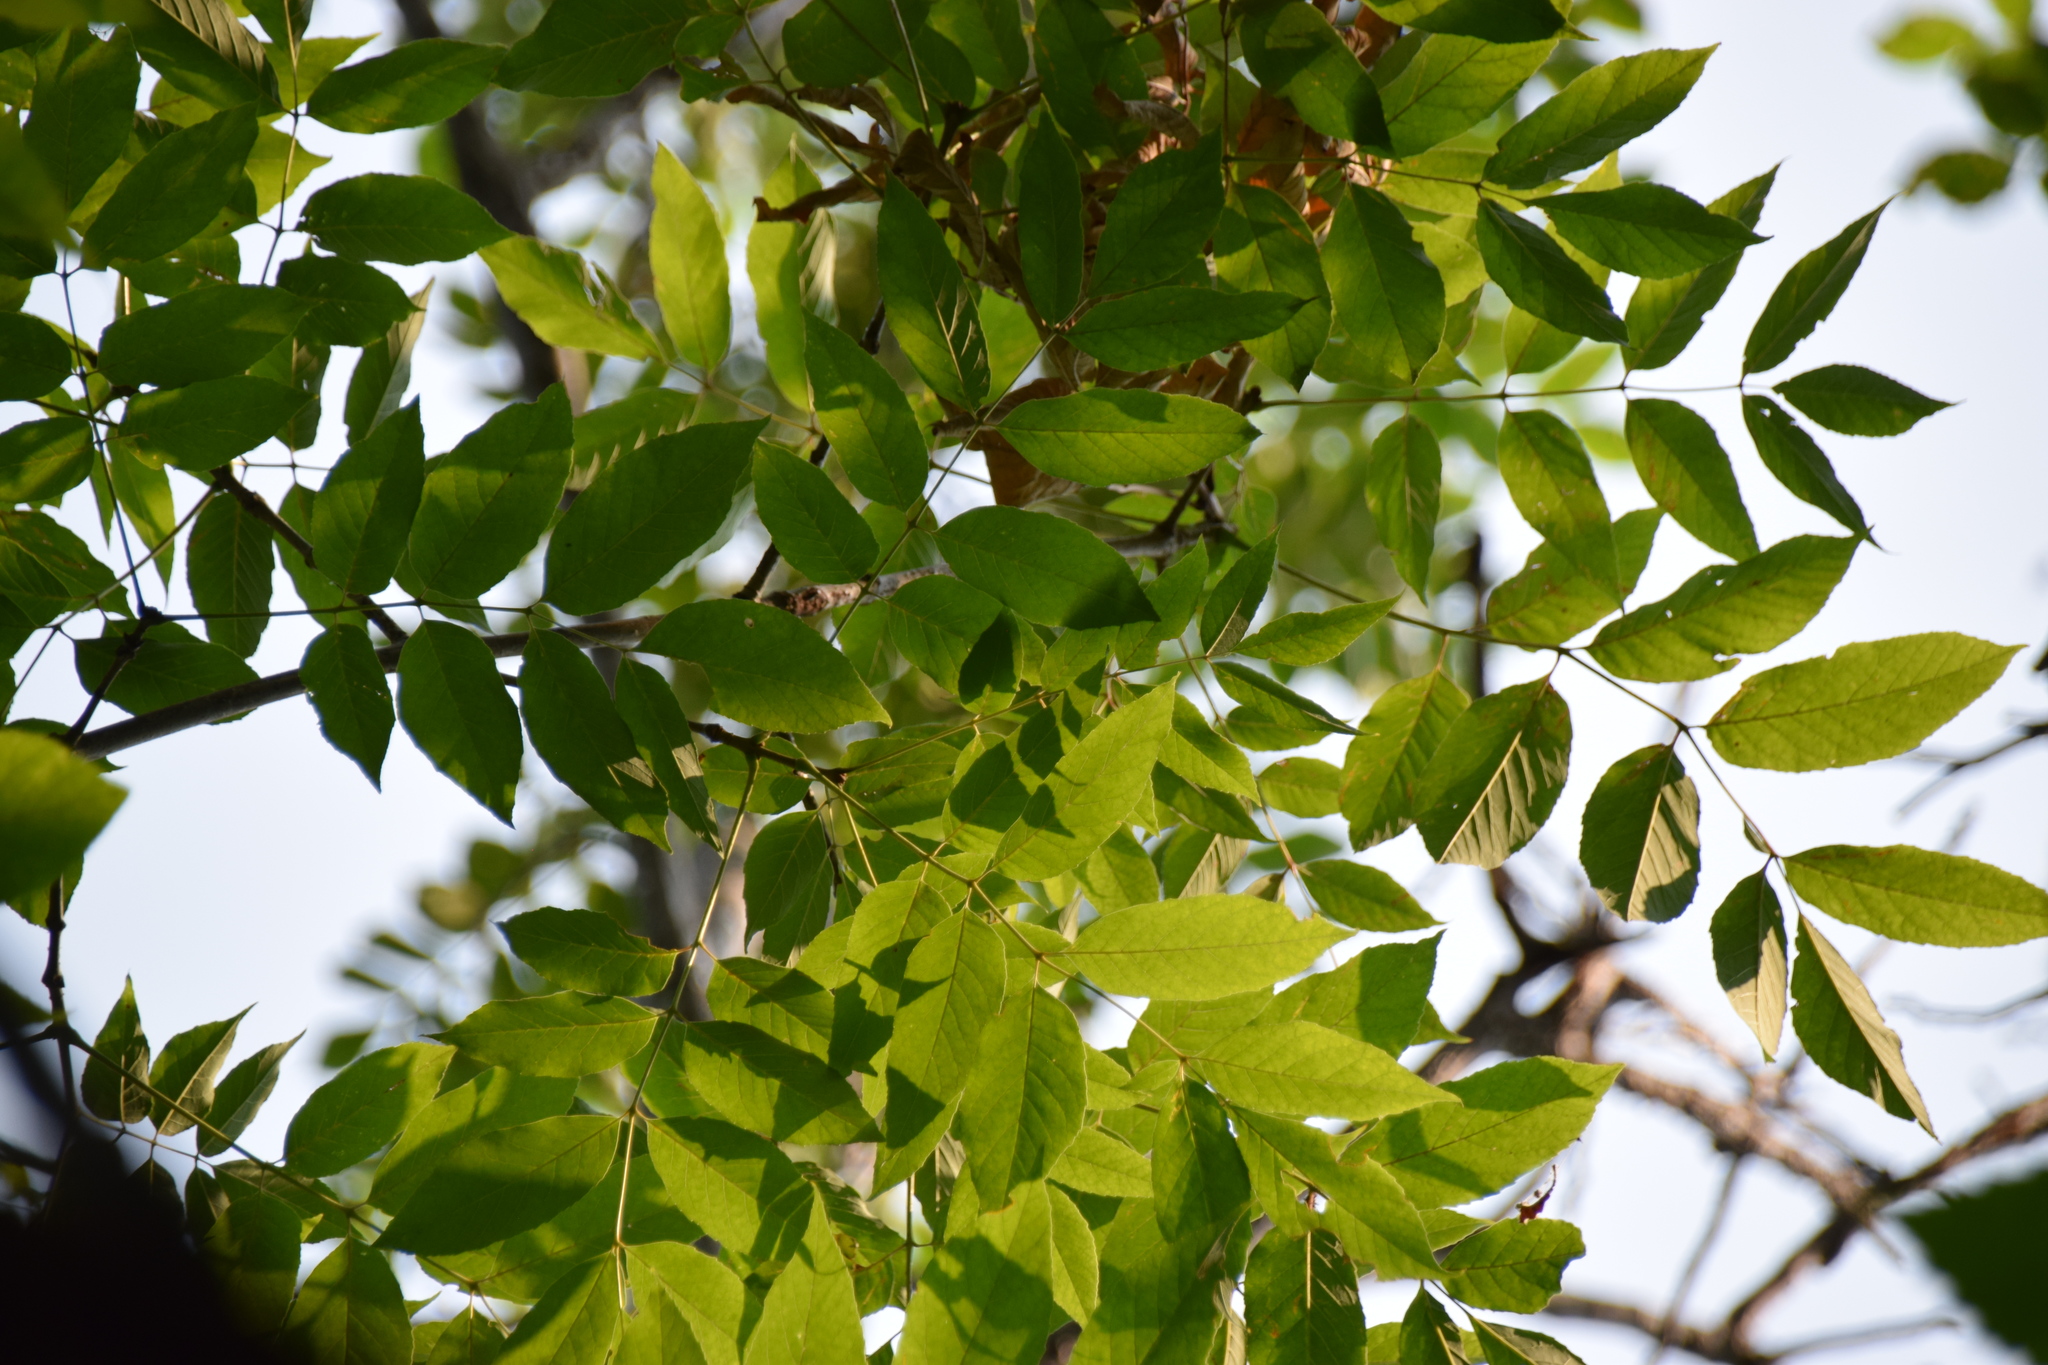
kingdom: Plantae
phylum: Tracheophyta
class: Magnoliopsida
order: Fagales
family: Juglandaceae
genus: Juglans
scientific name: Juglans cinerea
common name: Butternut
